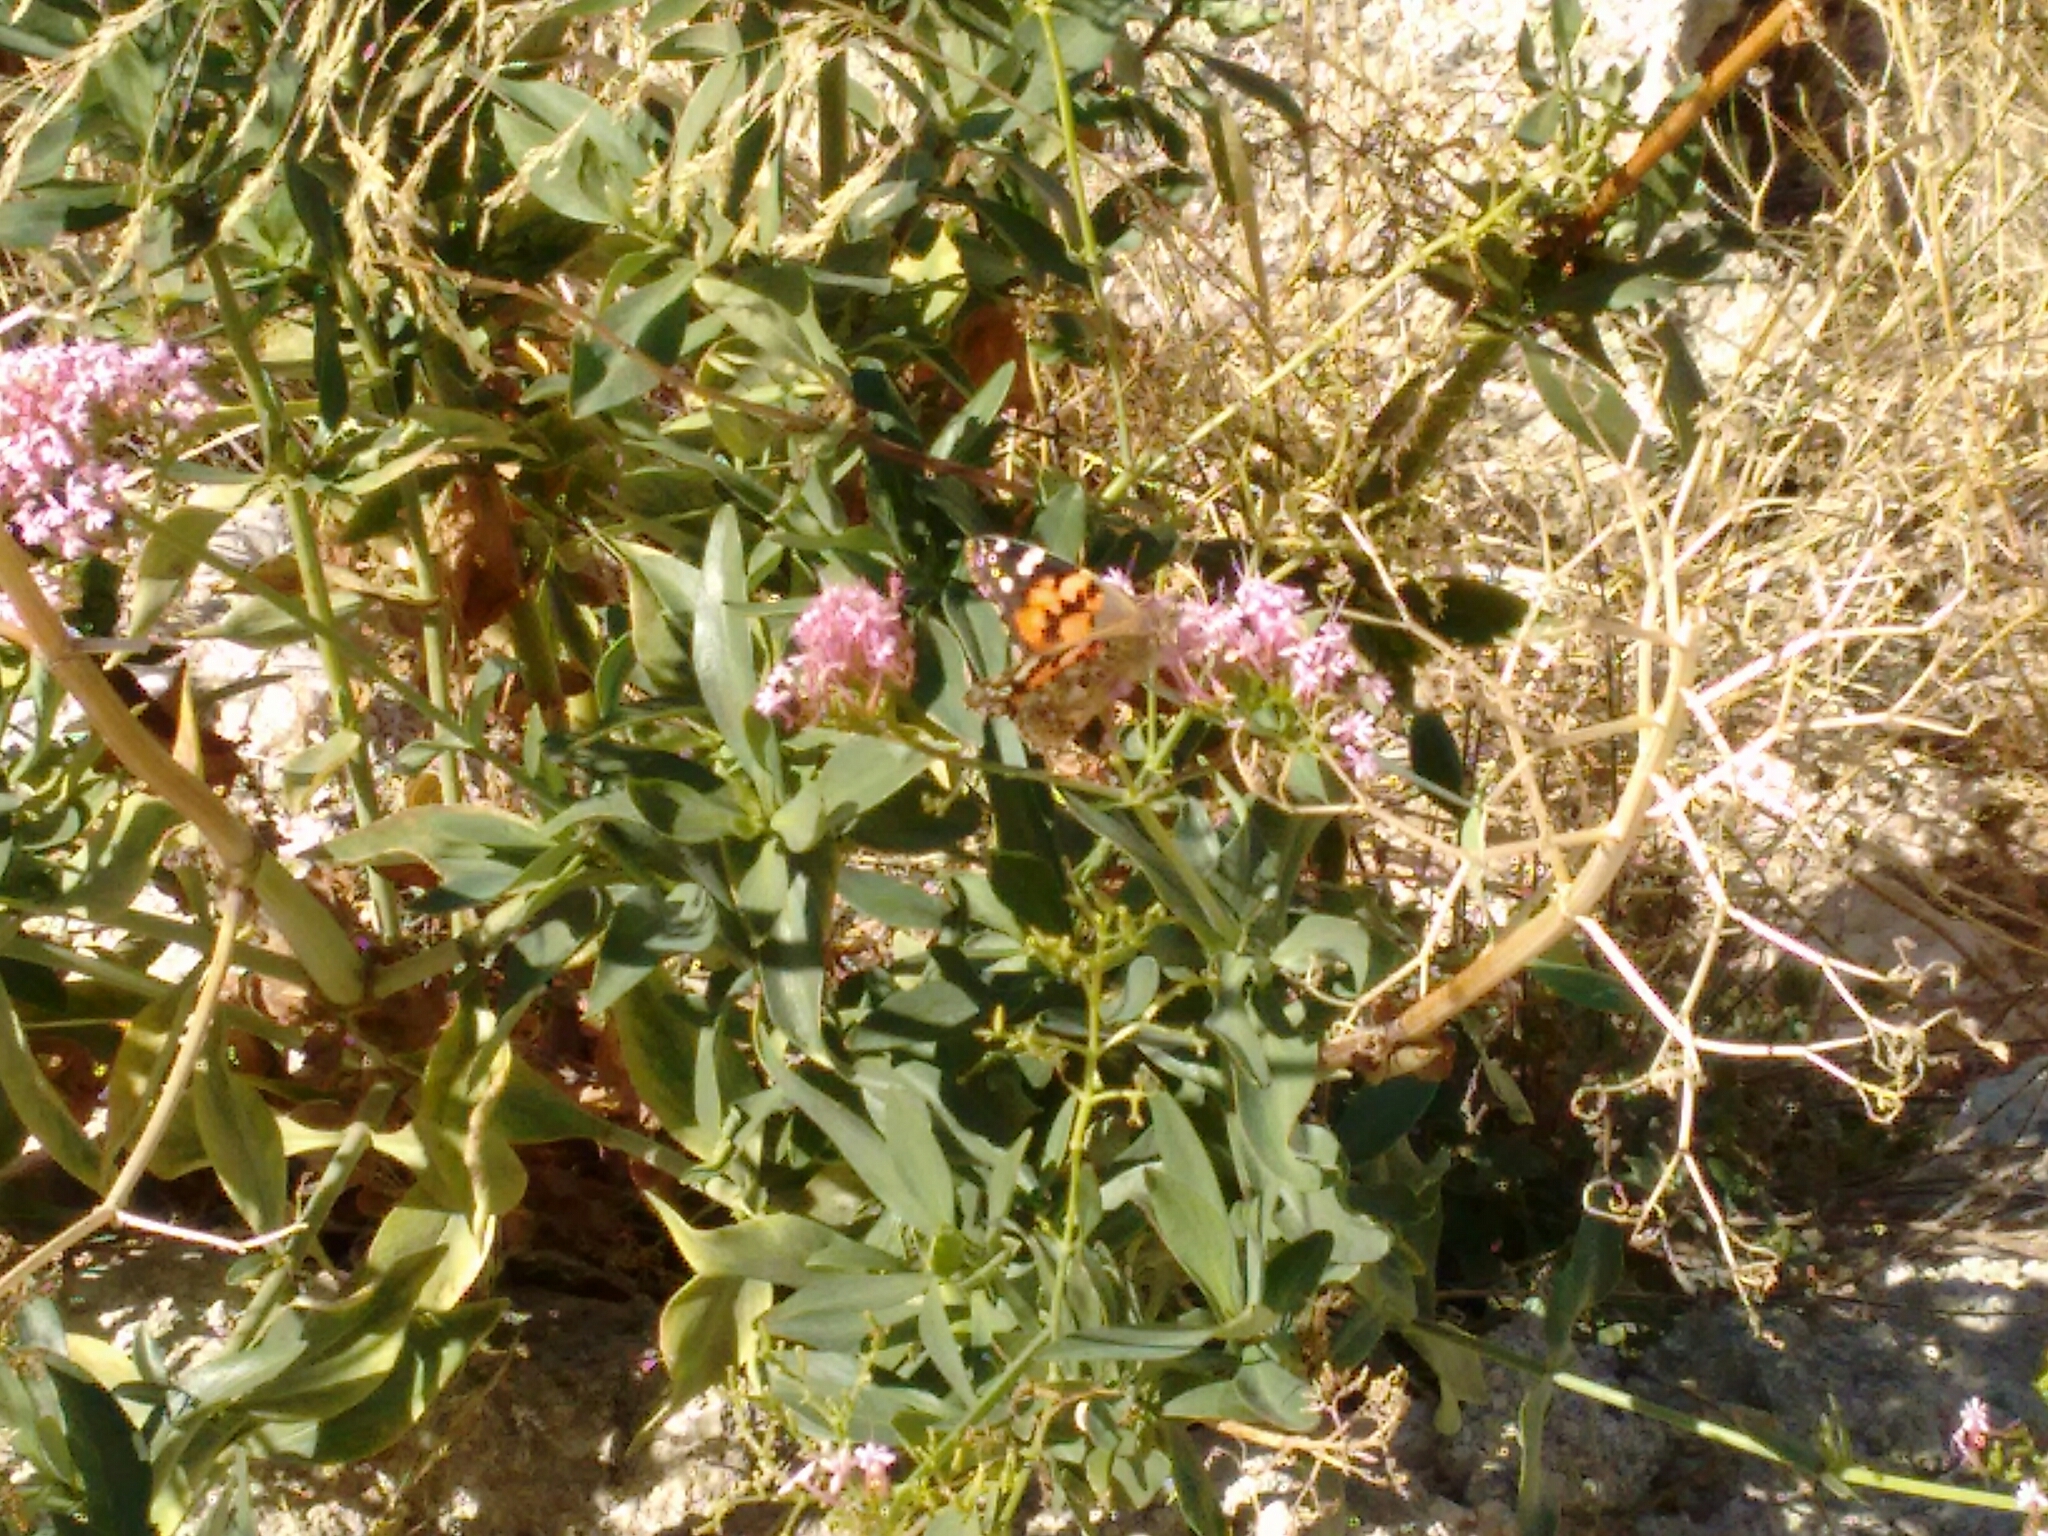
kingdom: Animalia
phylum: Arthropoda
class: Insecta
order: Lepidoptera
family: Nymphalidae
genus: Vanessa
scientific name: Vanessa cardui
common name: Painted lady
